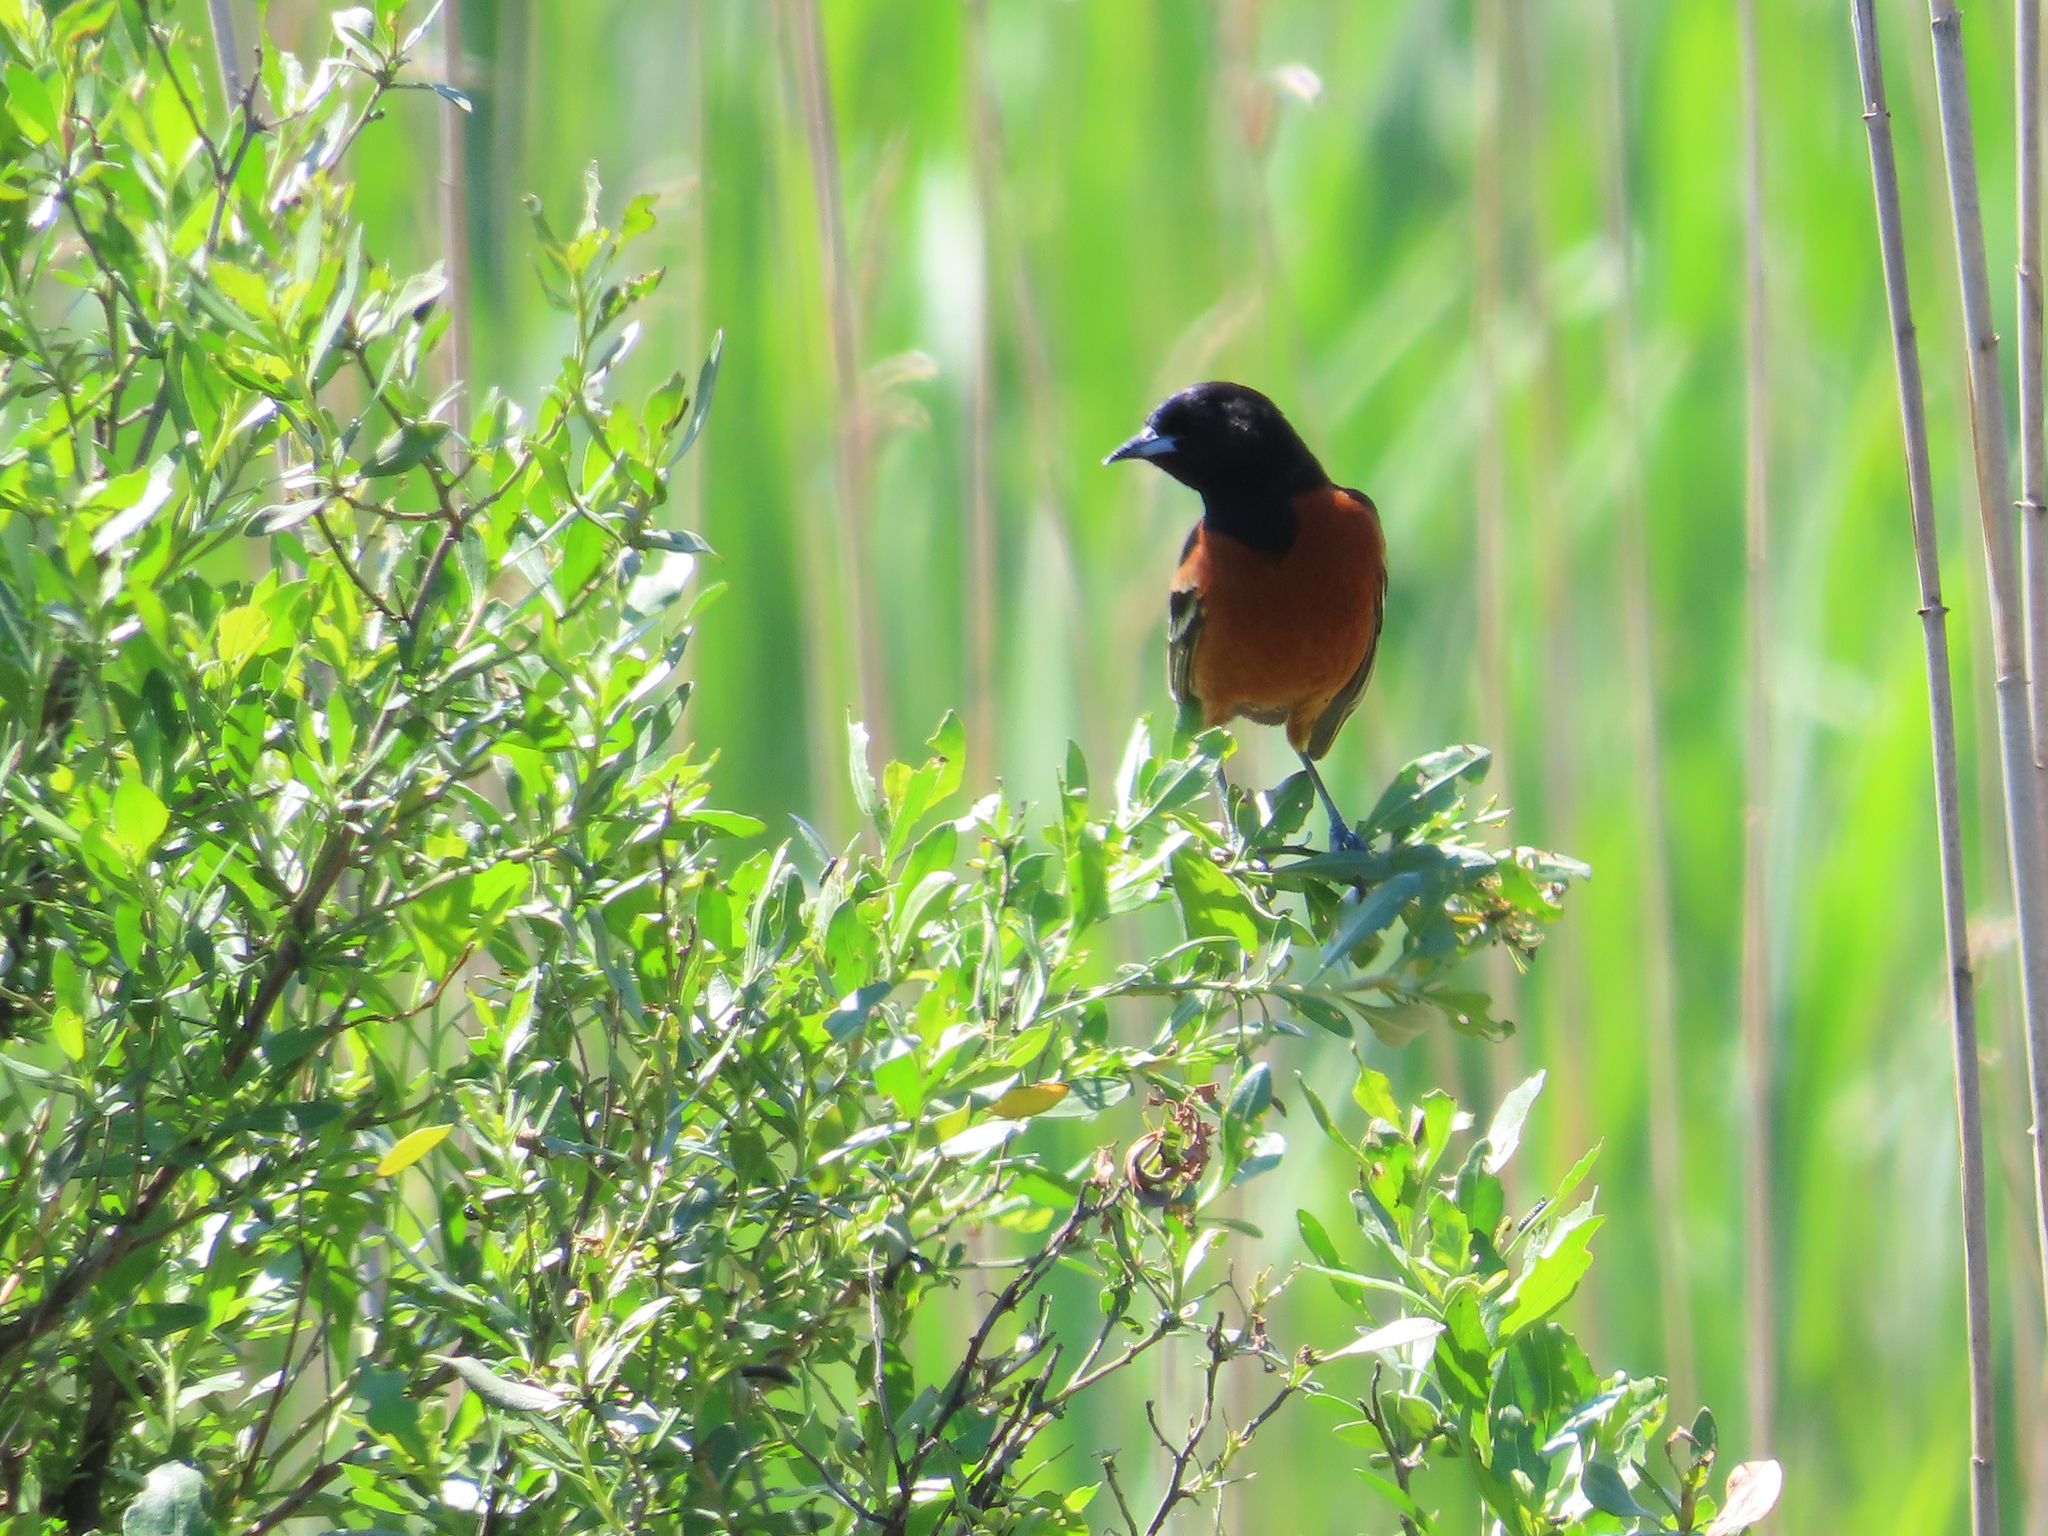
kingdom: Animalia
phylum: Chordata
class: Aves
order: Passeriformes
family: Icteridae
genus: Icterus
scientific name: Icterus spurius
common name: Orchard oriole
